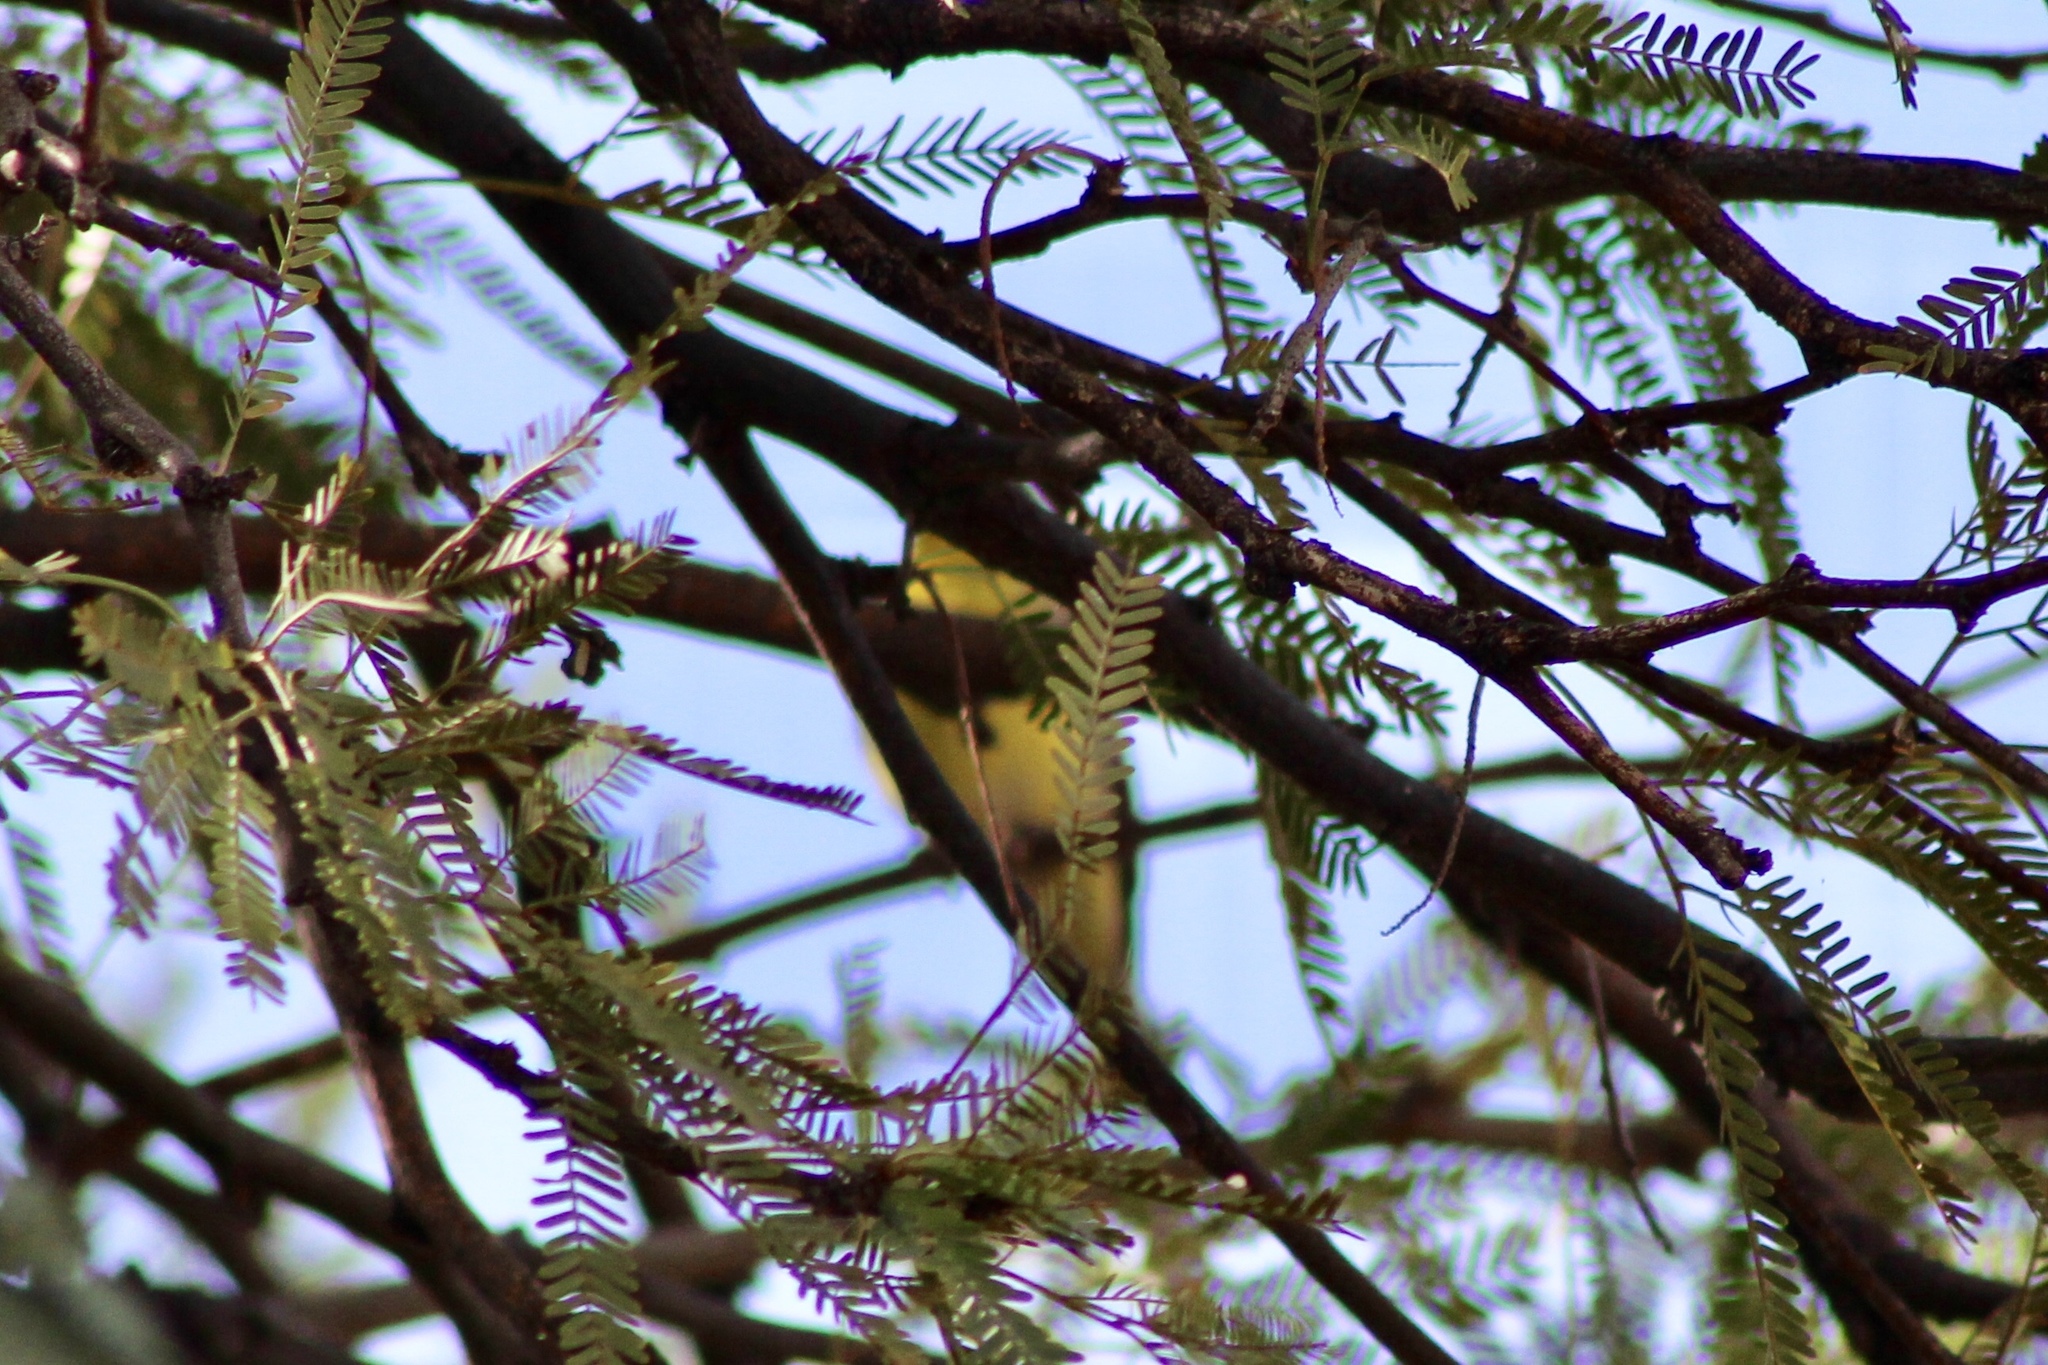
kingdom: Animalia
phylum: Chordata
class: Aves
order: Passeriformes
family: Fringillidae
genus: Spinus
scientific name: Spinus psaltria
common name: Lesser goldfinch
